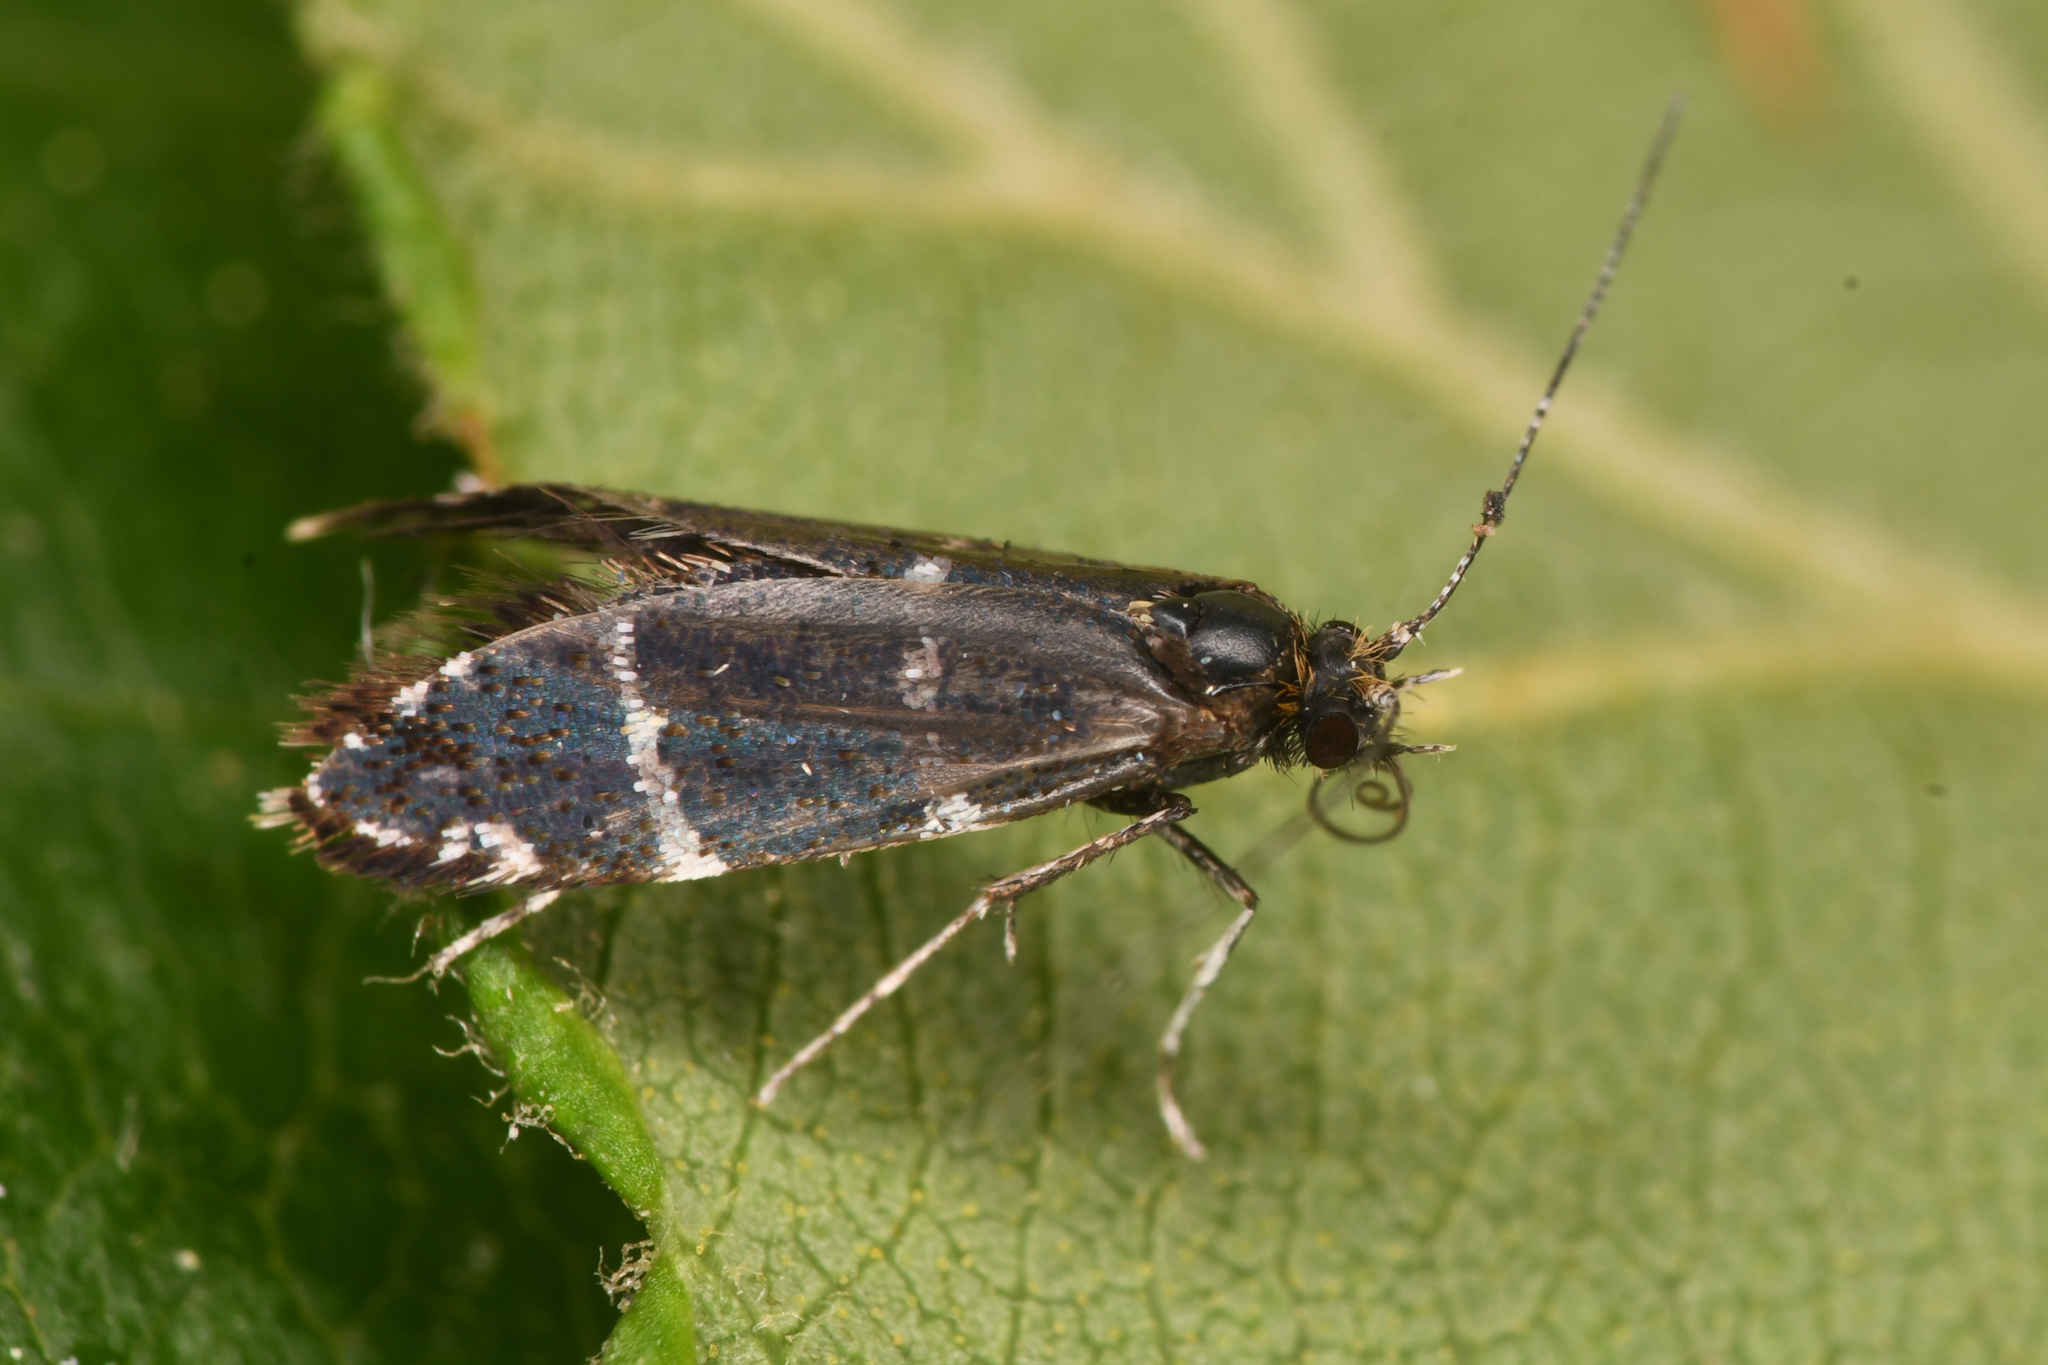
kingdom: Animalia
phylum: Arthropoda
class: Insecta
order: Lepidoptera
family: Adelidae
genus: Adela
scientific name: Adela septentrionella
